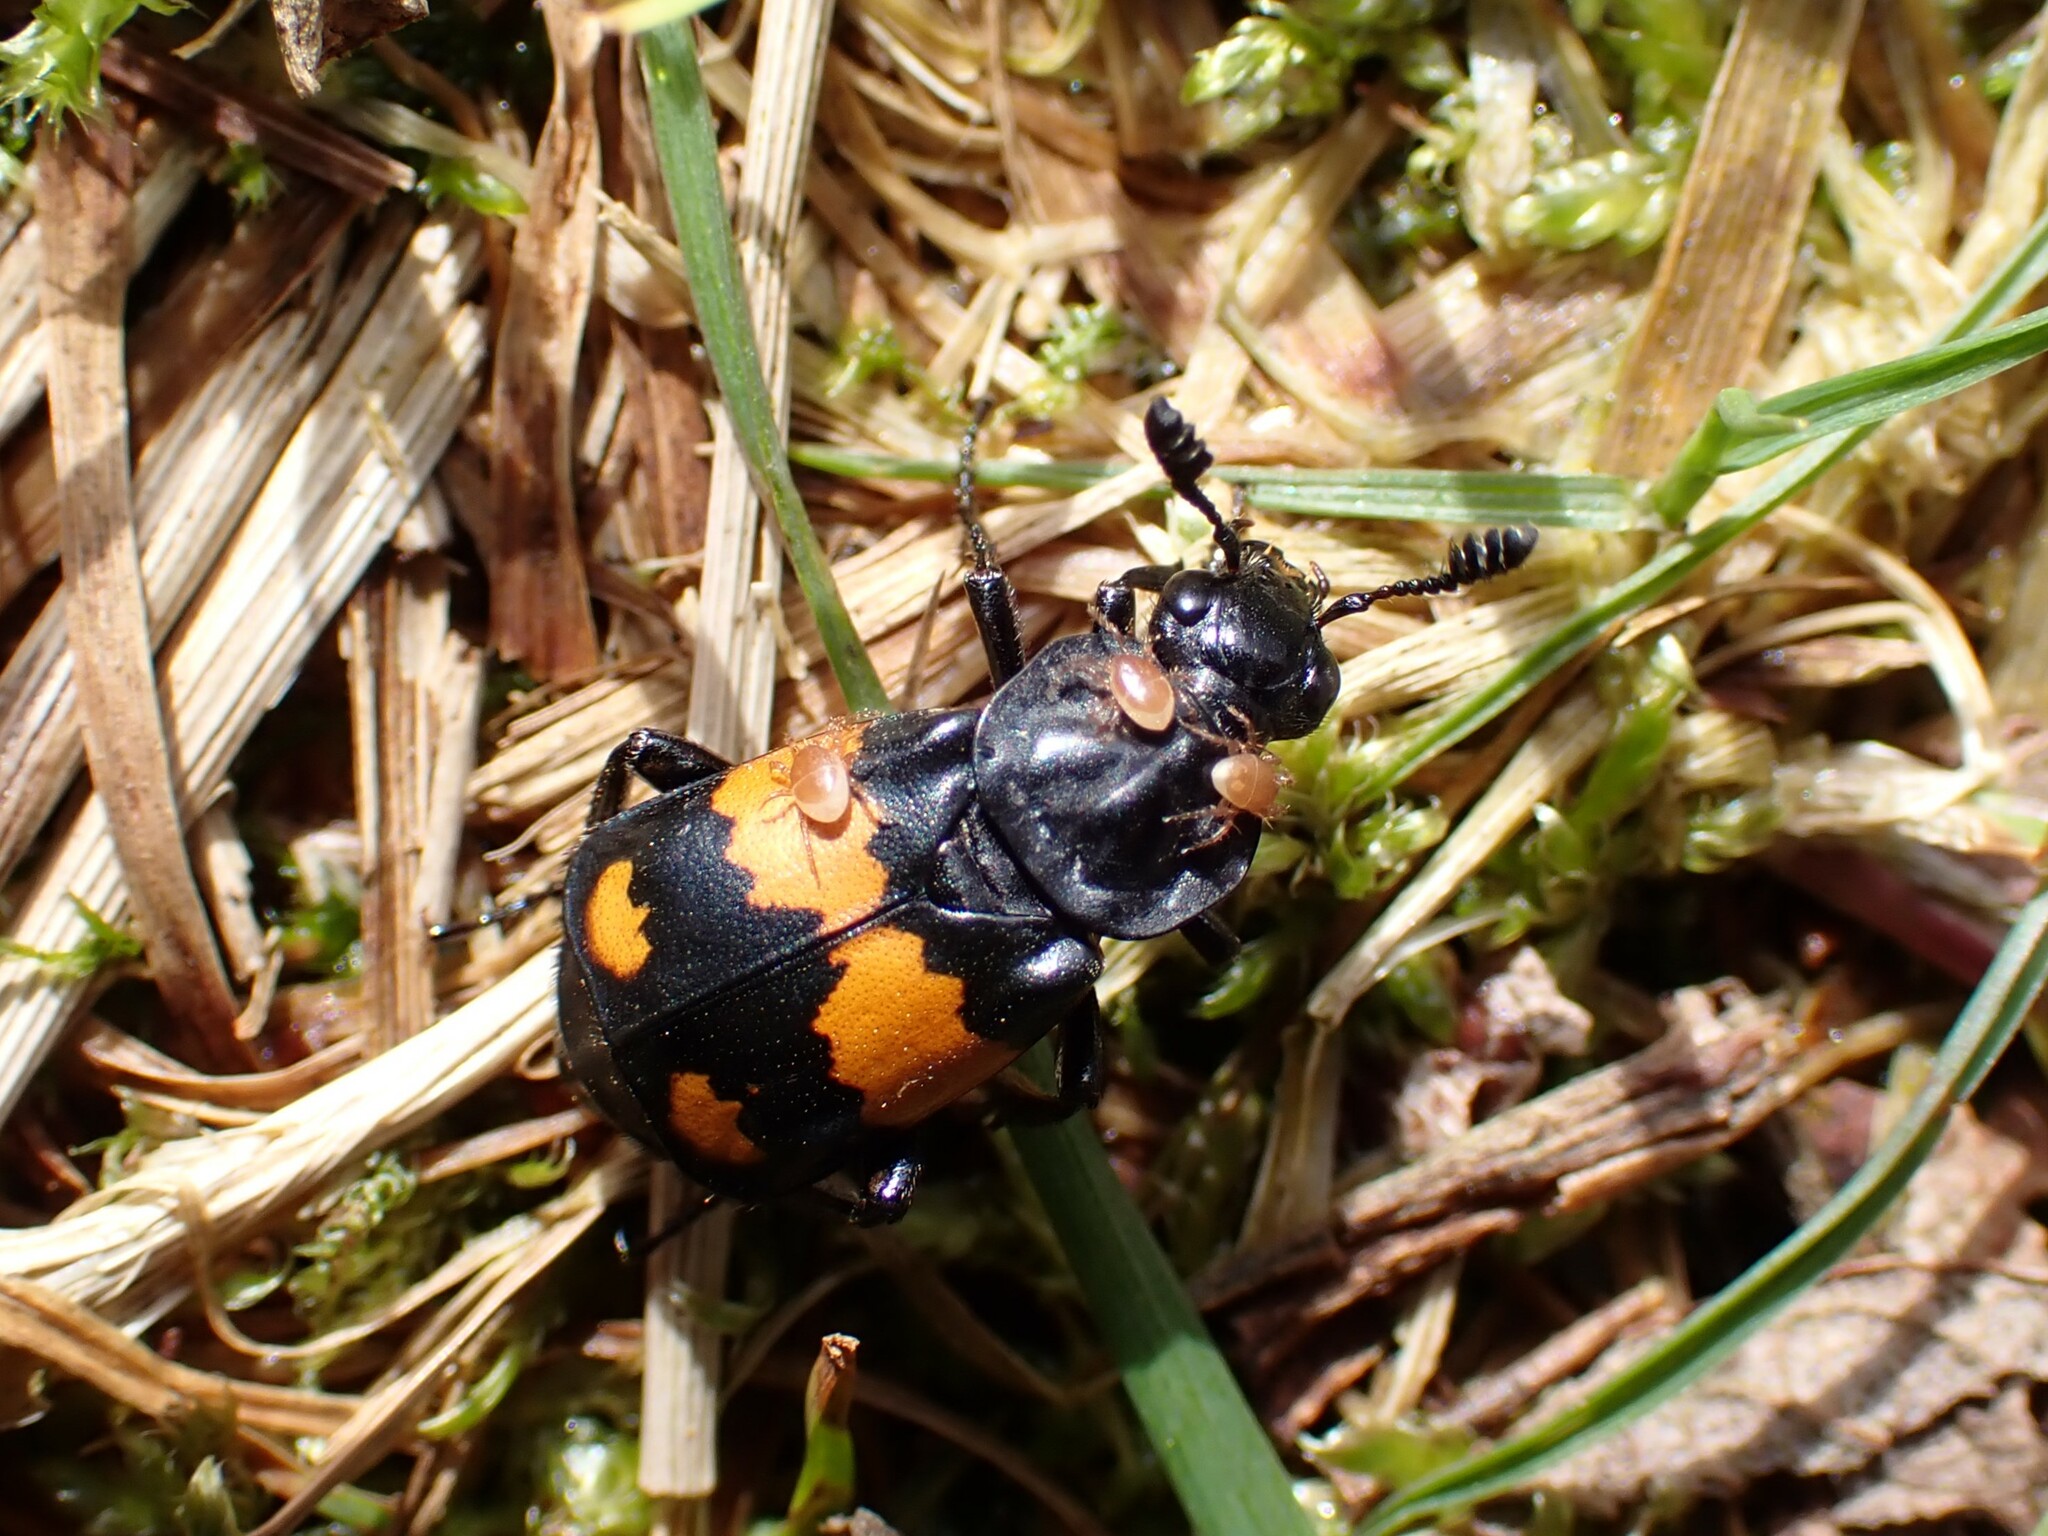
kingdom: Animalia
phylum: Arthropoda
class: Insecta
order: Coleoptera
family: Staphylinidae
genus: Nicrophorus
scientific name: Nicrophorus vespilloides
